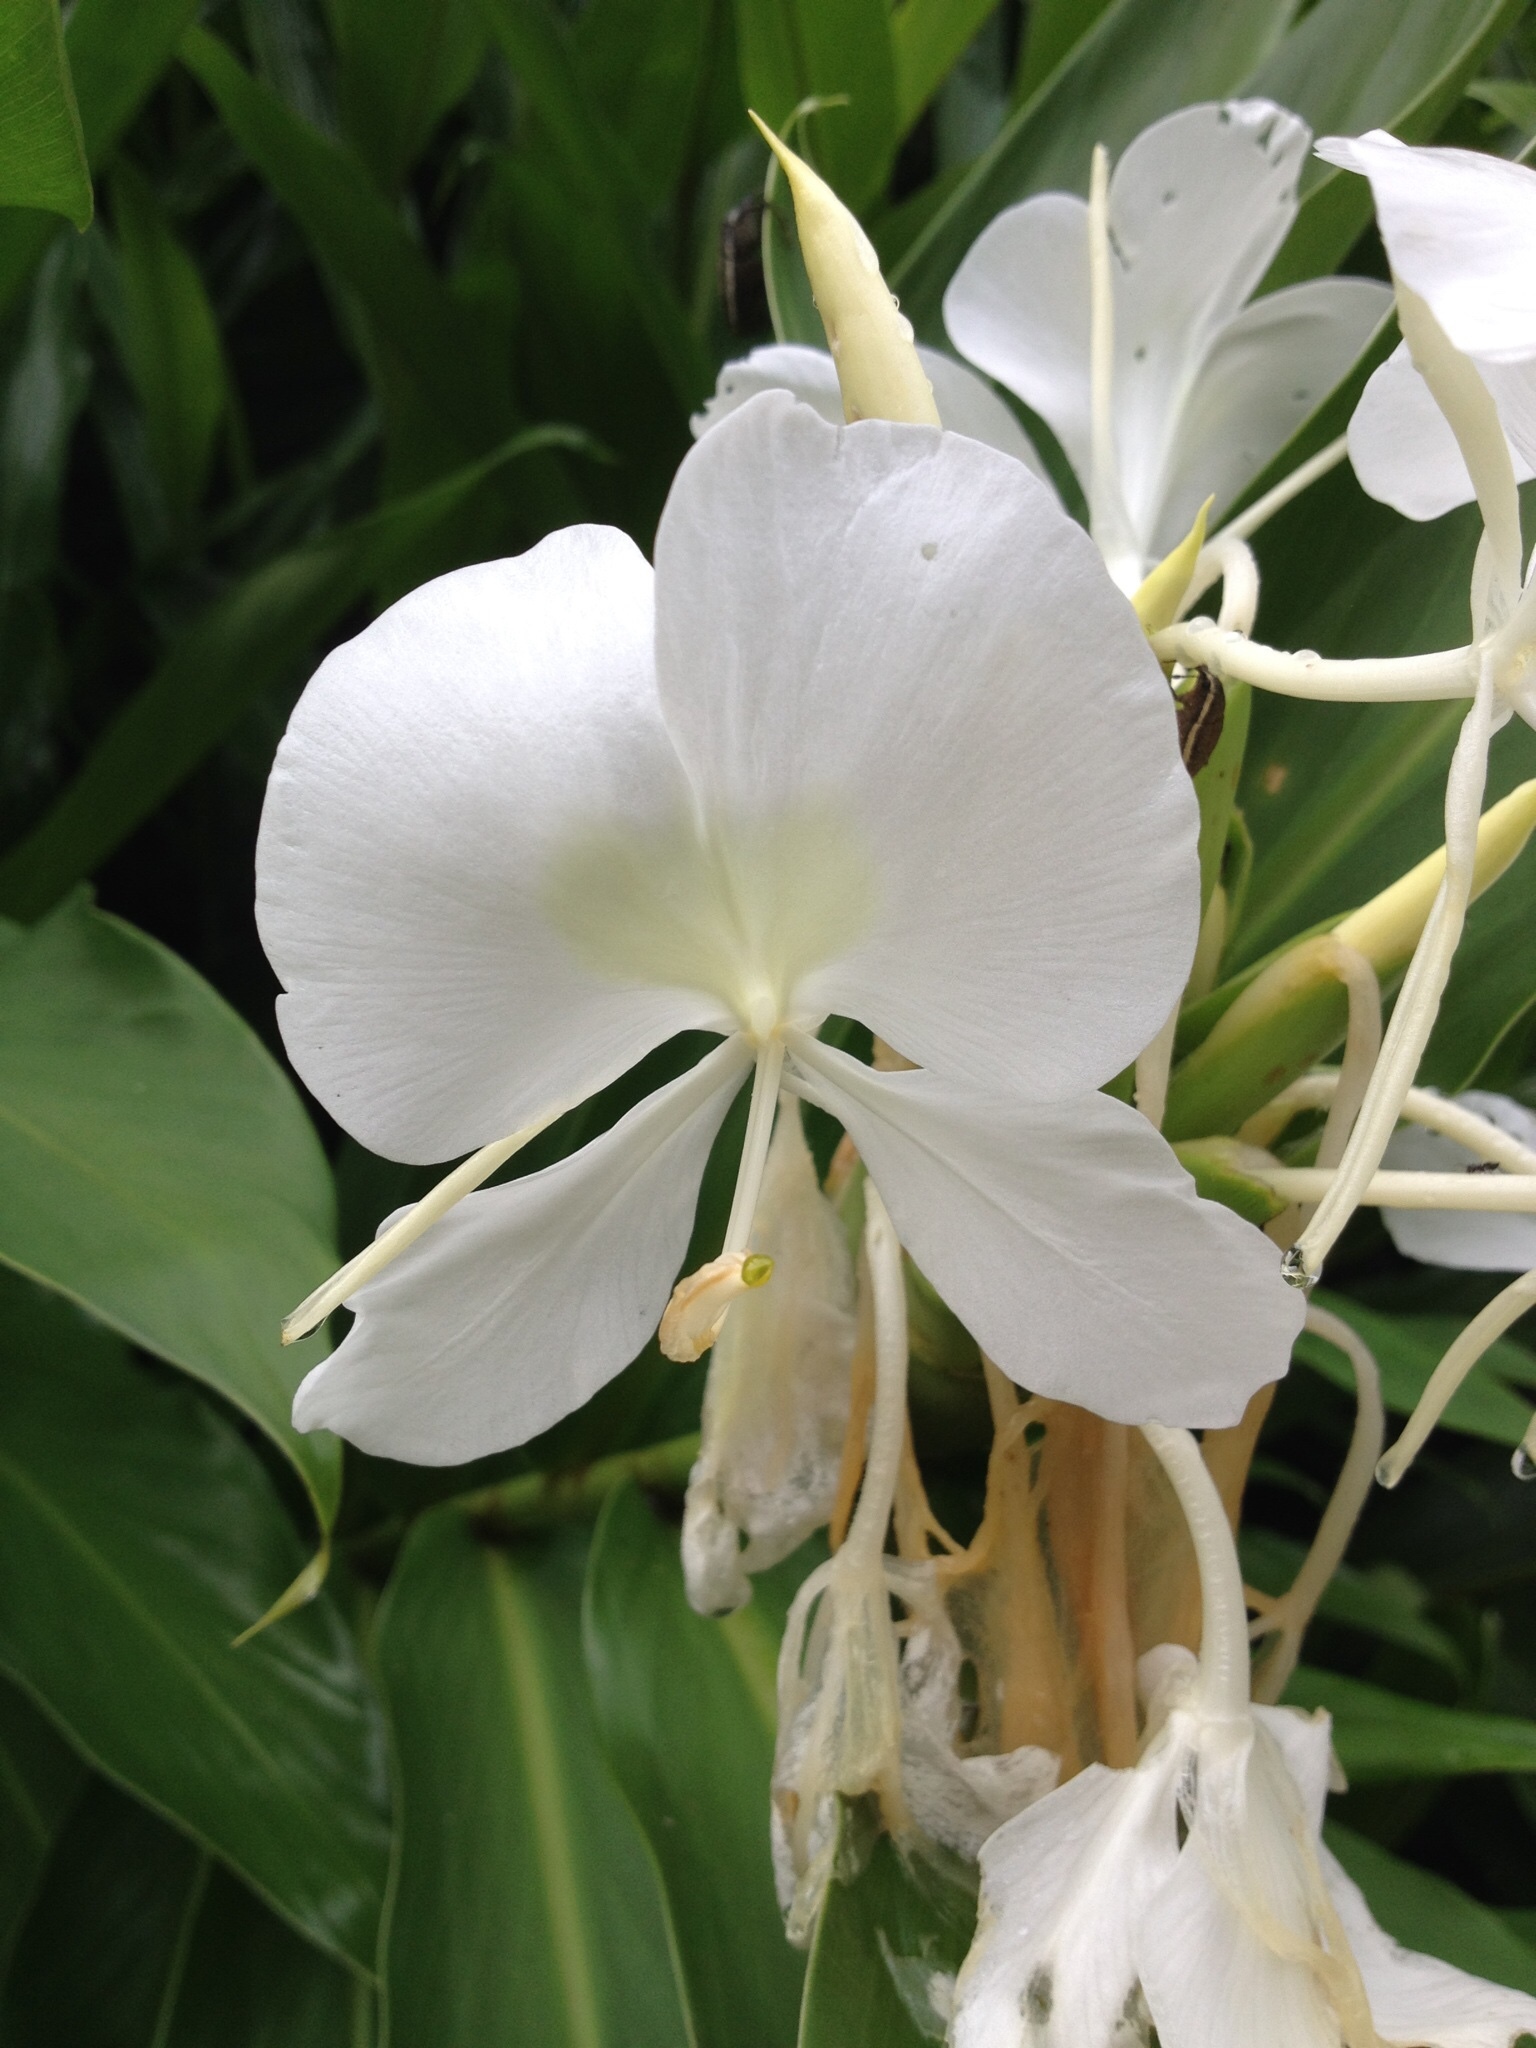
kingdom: Plantae
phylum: Tracheophyta
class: Liliopsida
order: Zingiberales
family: Zingiberaceae
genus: Hedychium
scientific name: Hedychium coronarium
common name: White garland-lily
